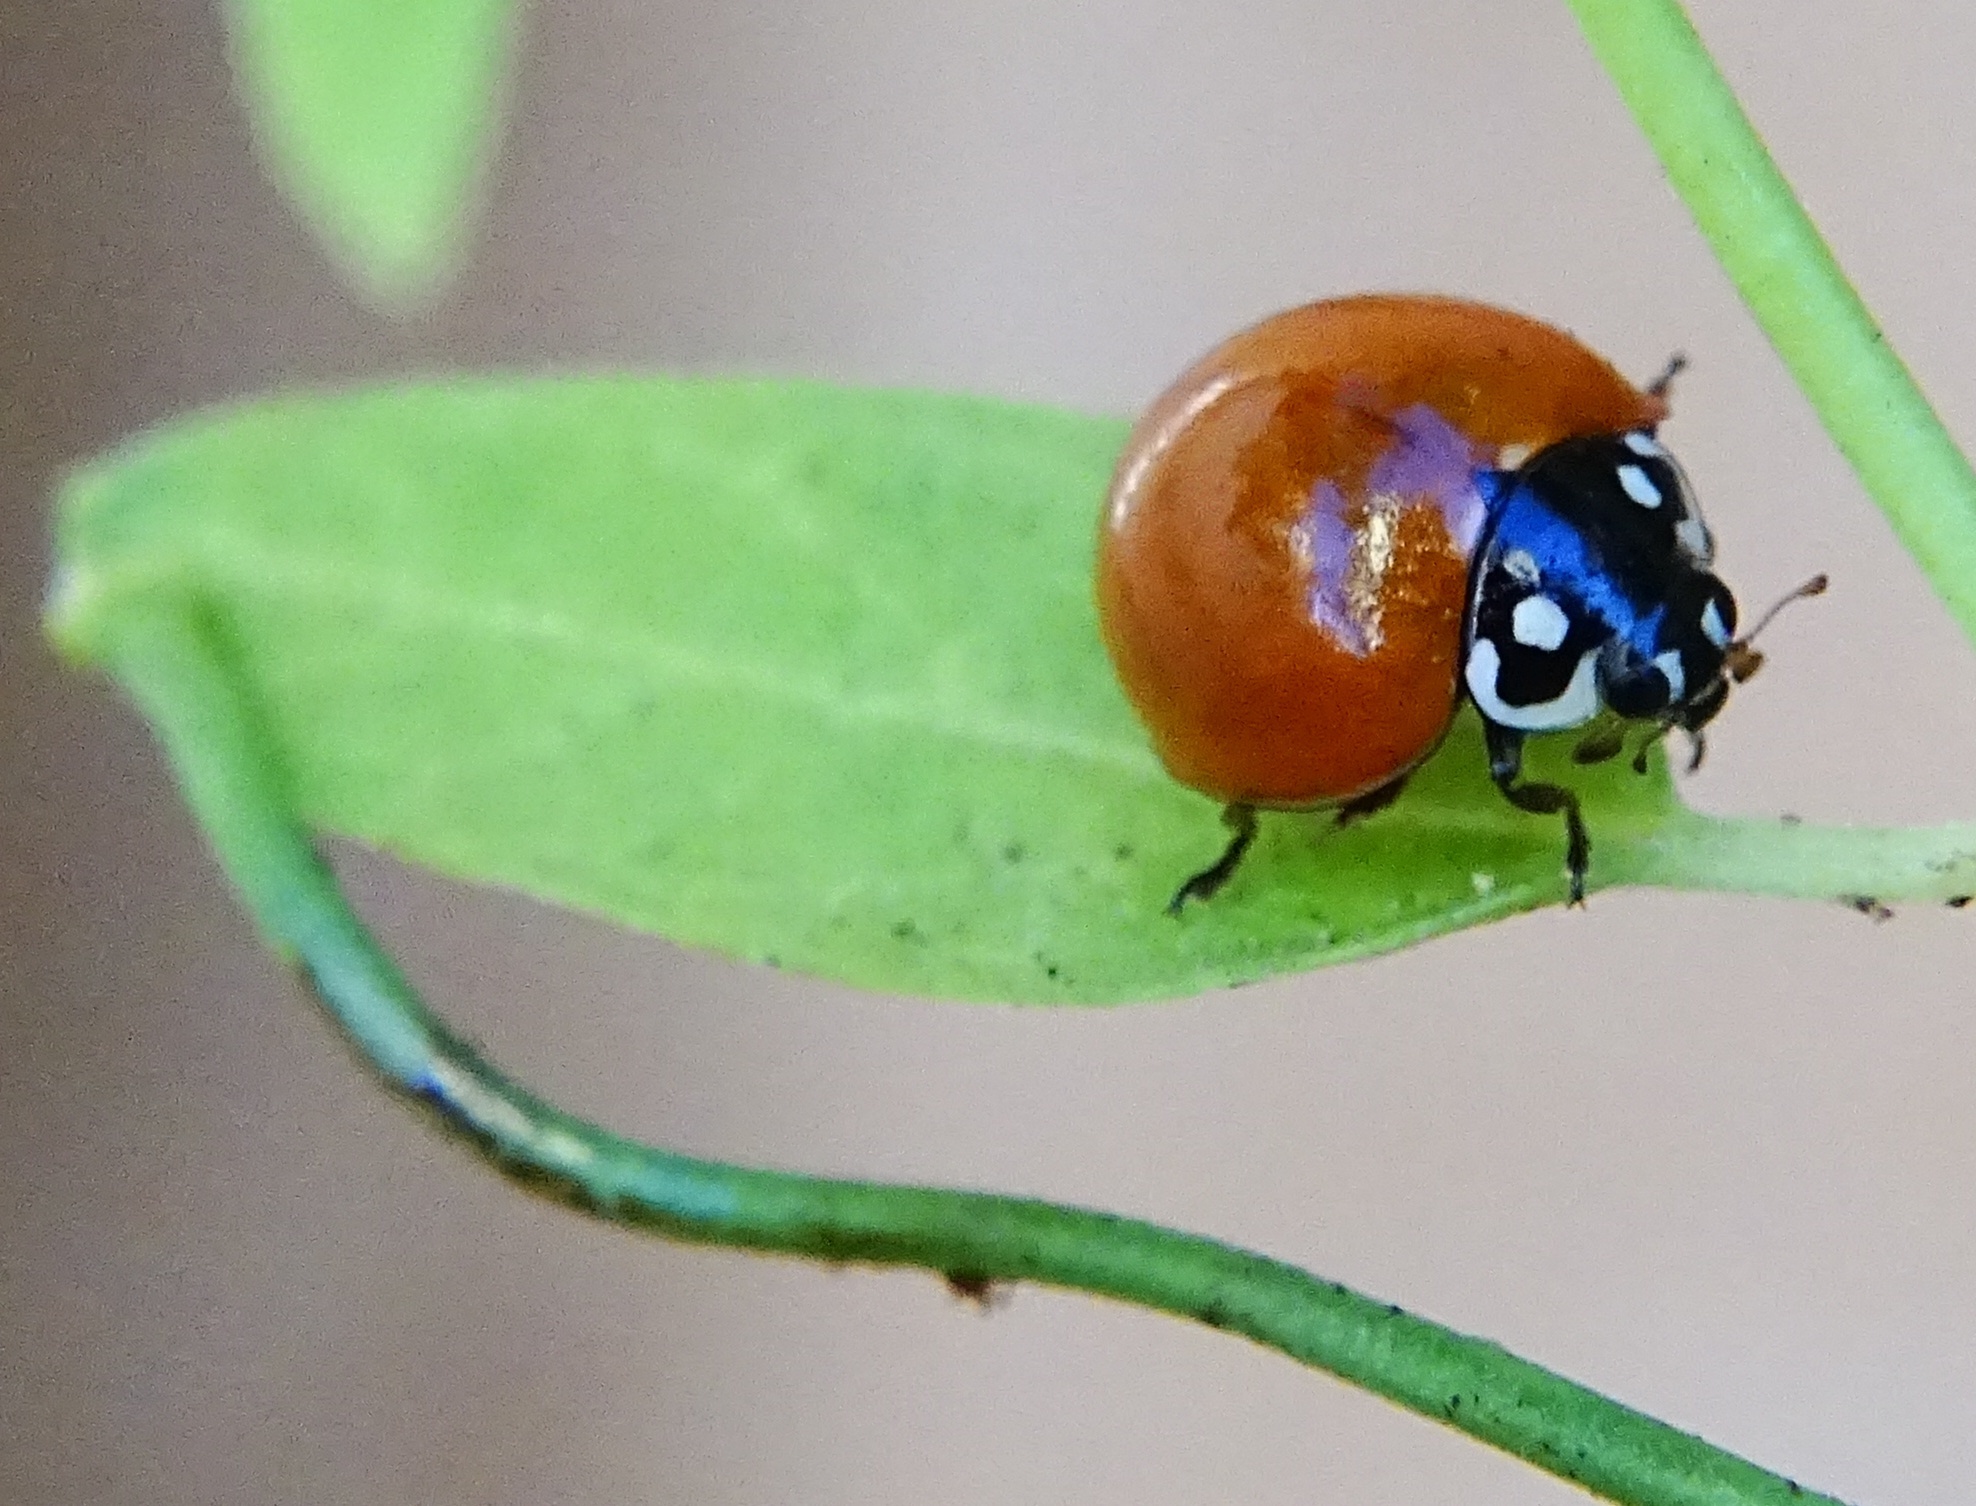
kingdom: Animalia
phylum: Arthropoda
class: Insecta
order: Coleoptera
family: Coccinellidae
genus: Cycloneda
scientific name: Cycloneda sanguinea
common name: Ladybird beetle
